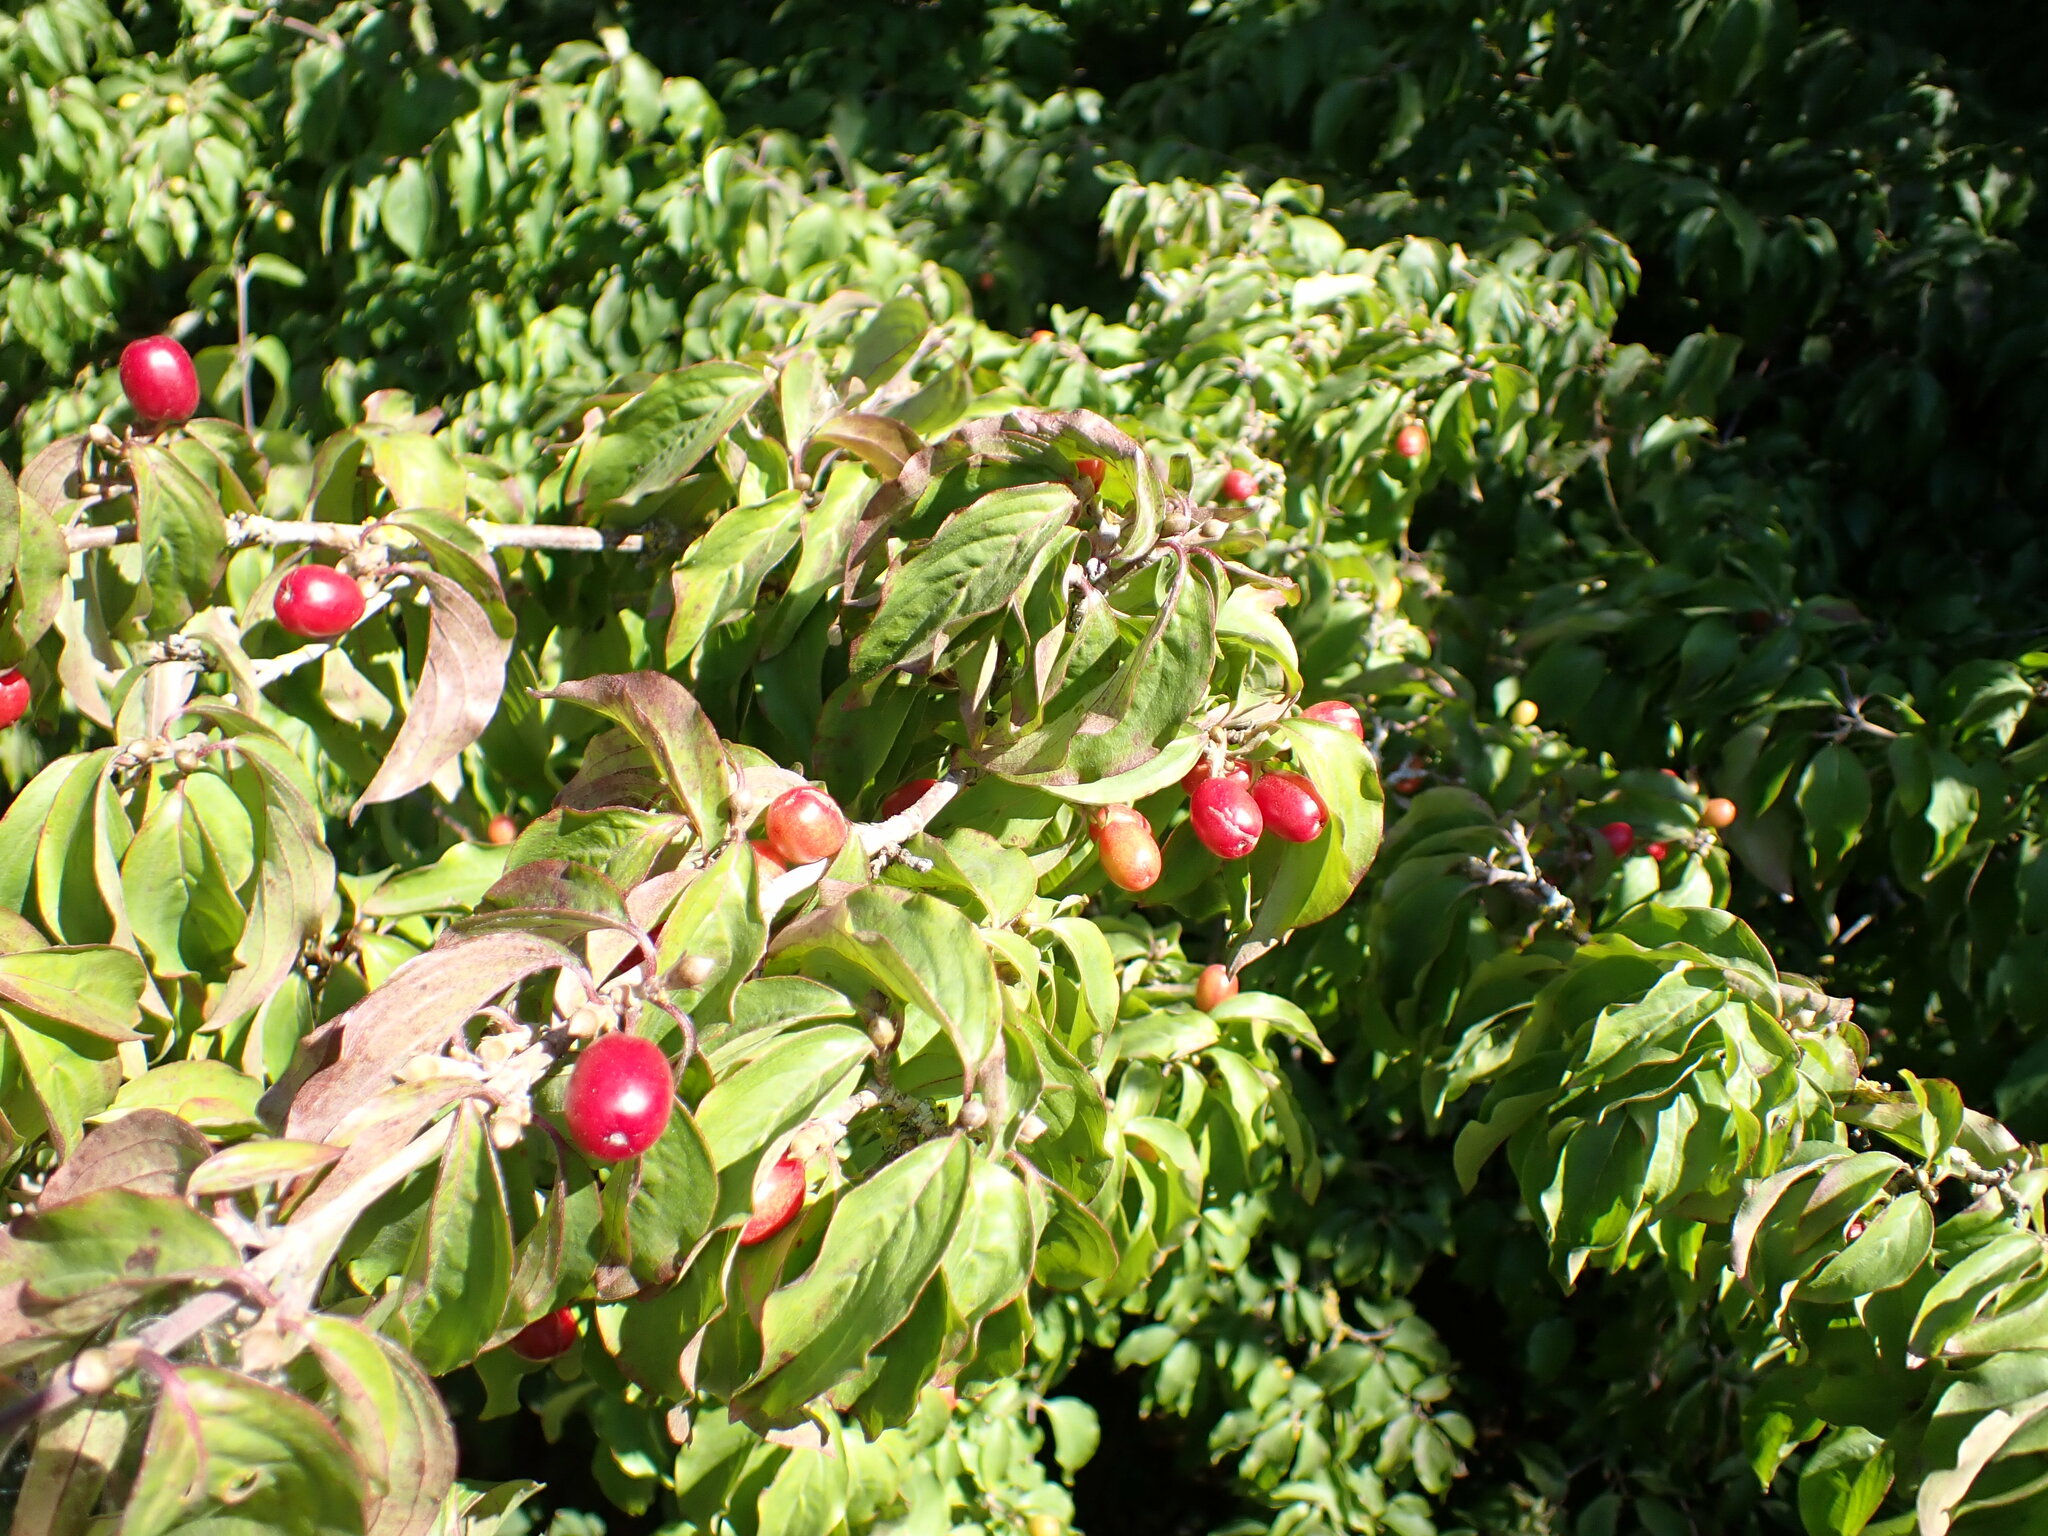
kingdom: Plantae
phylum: Tracheophyta
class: Magnoliopsida
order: Cornales
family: Cornaceae
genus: Cornus
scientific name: Cornus mas
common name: Cornelian-cherry
